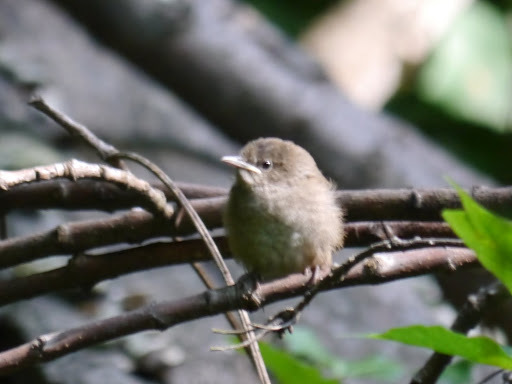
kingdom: Animalia
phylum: Chordata
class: Aves
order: Passeriformes
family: Troglodytidae
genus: Troglodytes
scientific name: Troglodytes aedon
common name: House wren
